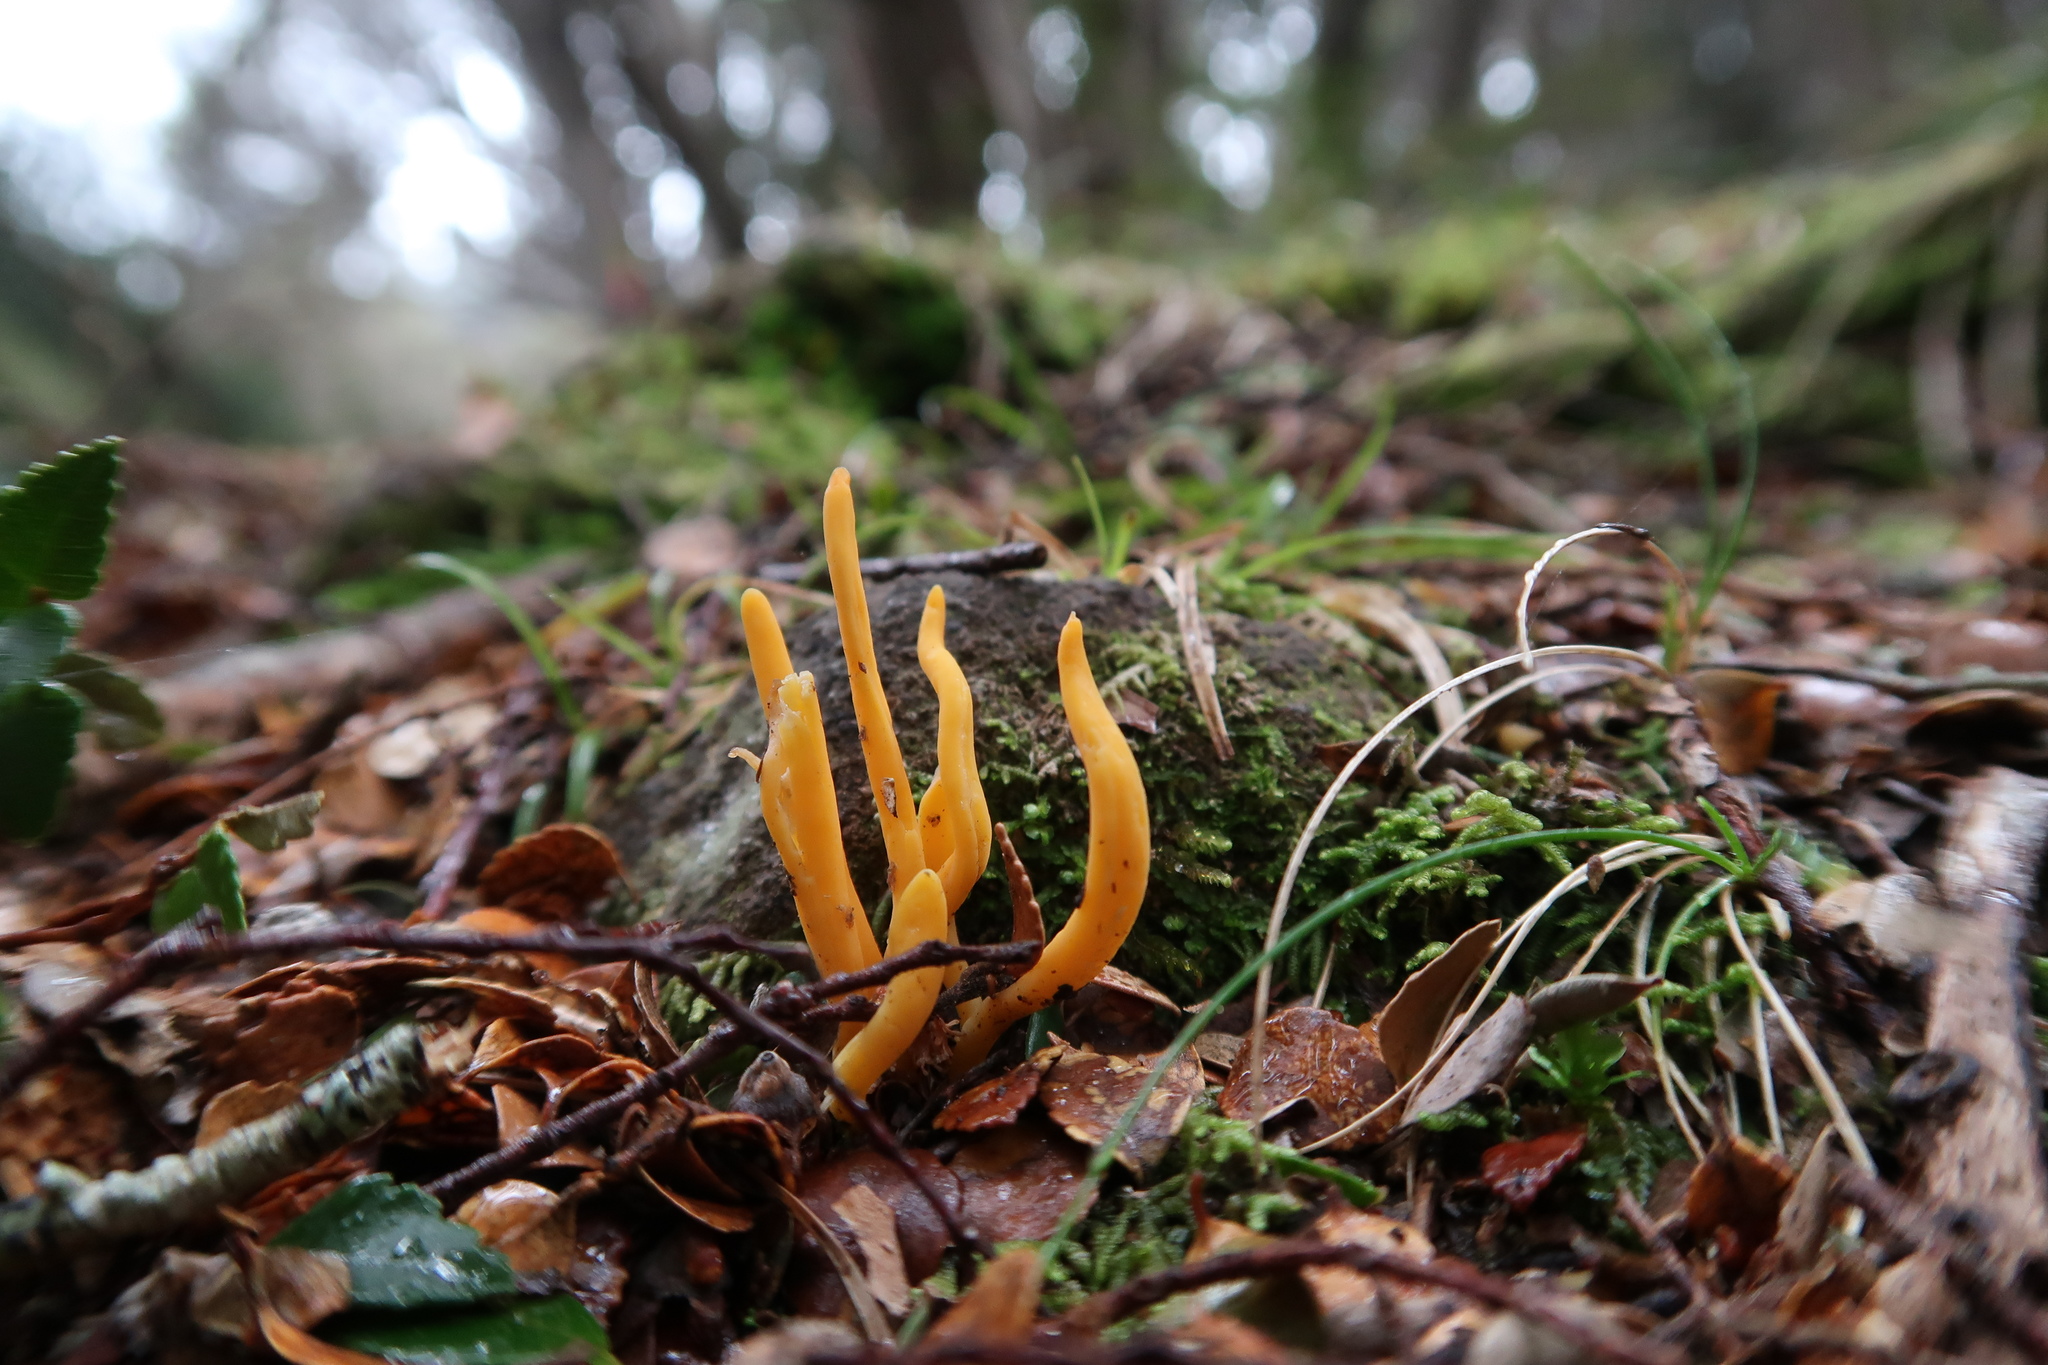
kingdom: Fungi
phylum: Basidiomycota
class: Agaricomycetes
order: Agaricales
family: Clavariaceae
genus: Clavulinopsis
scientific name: Clavulinopsis amoena
